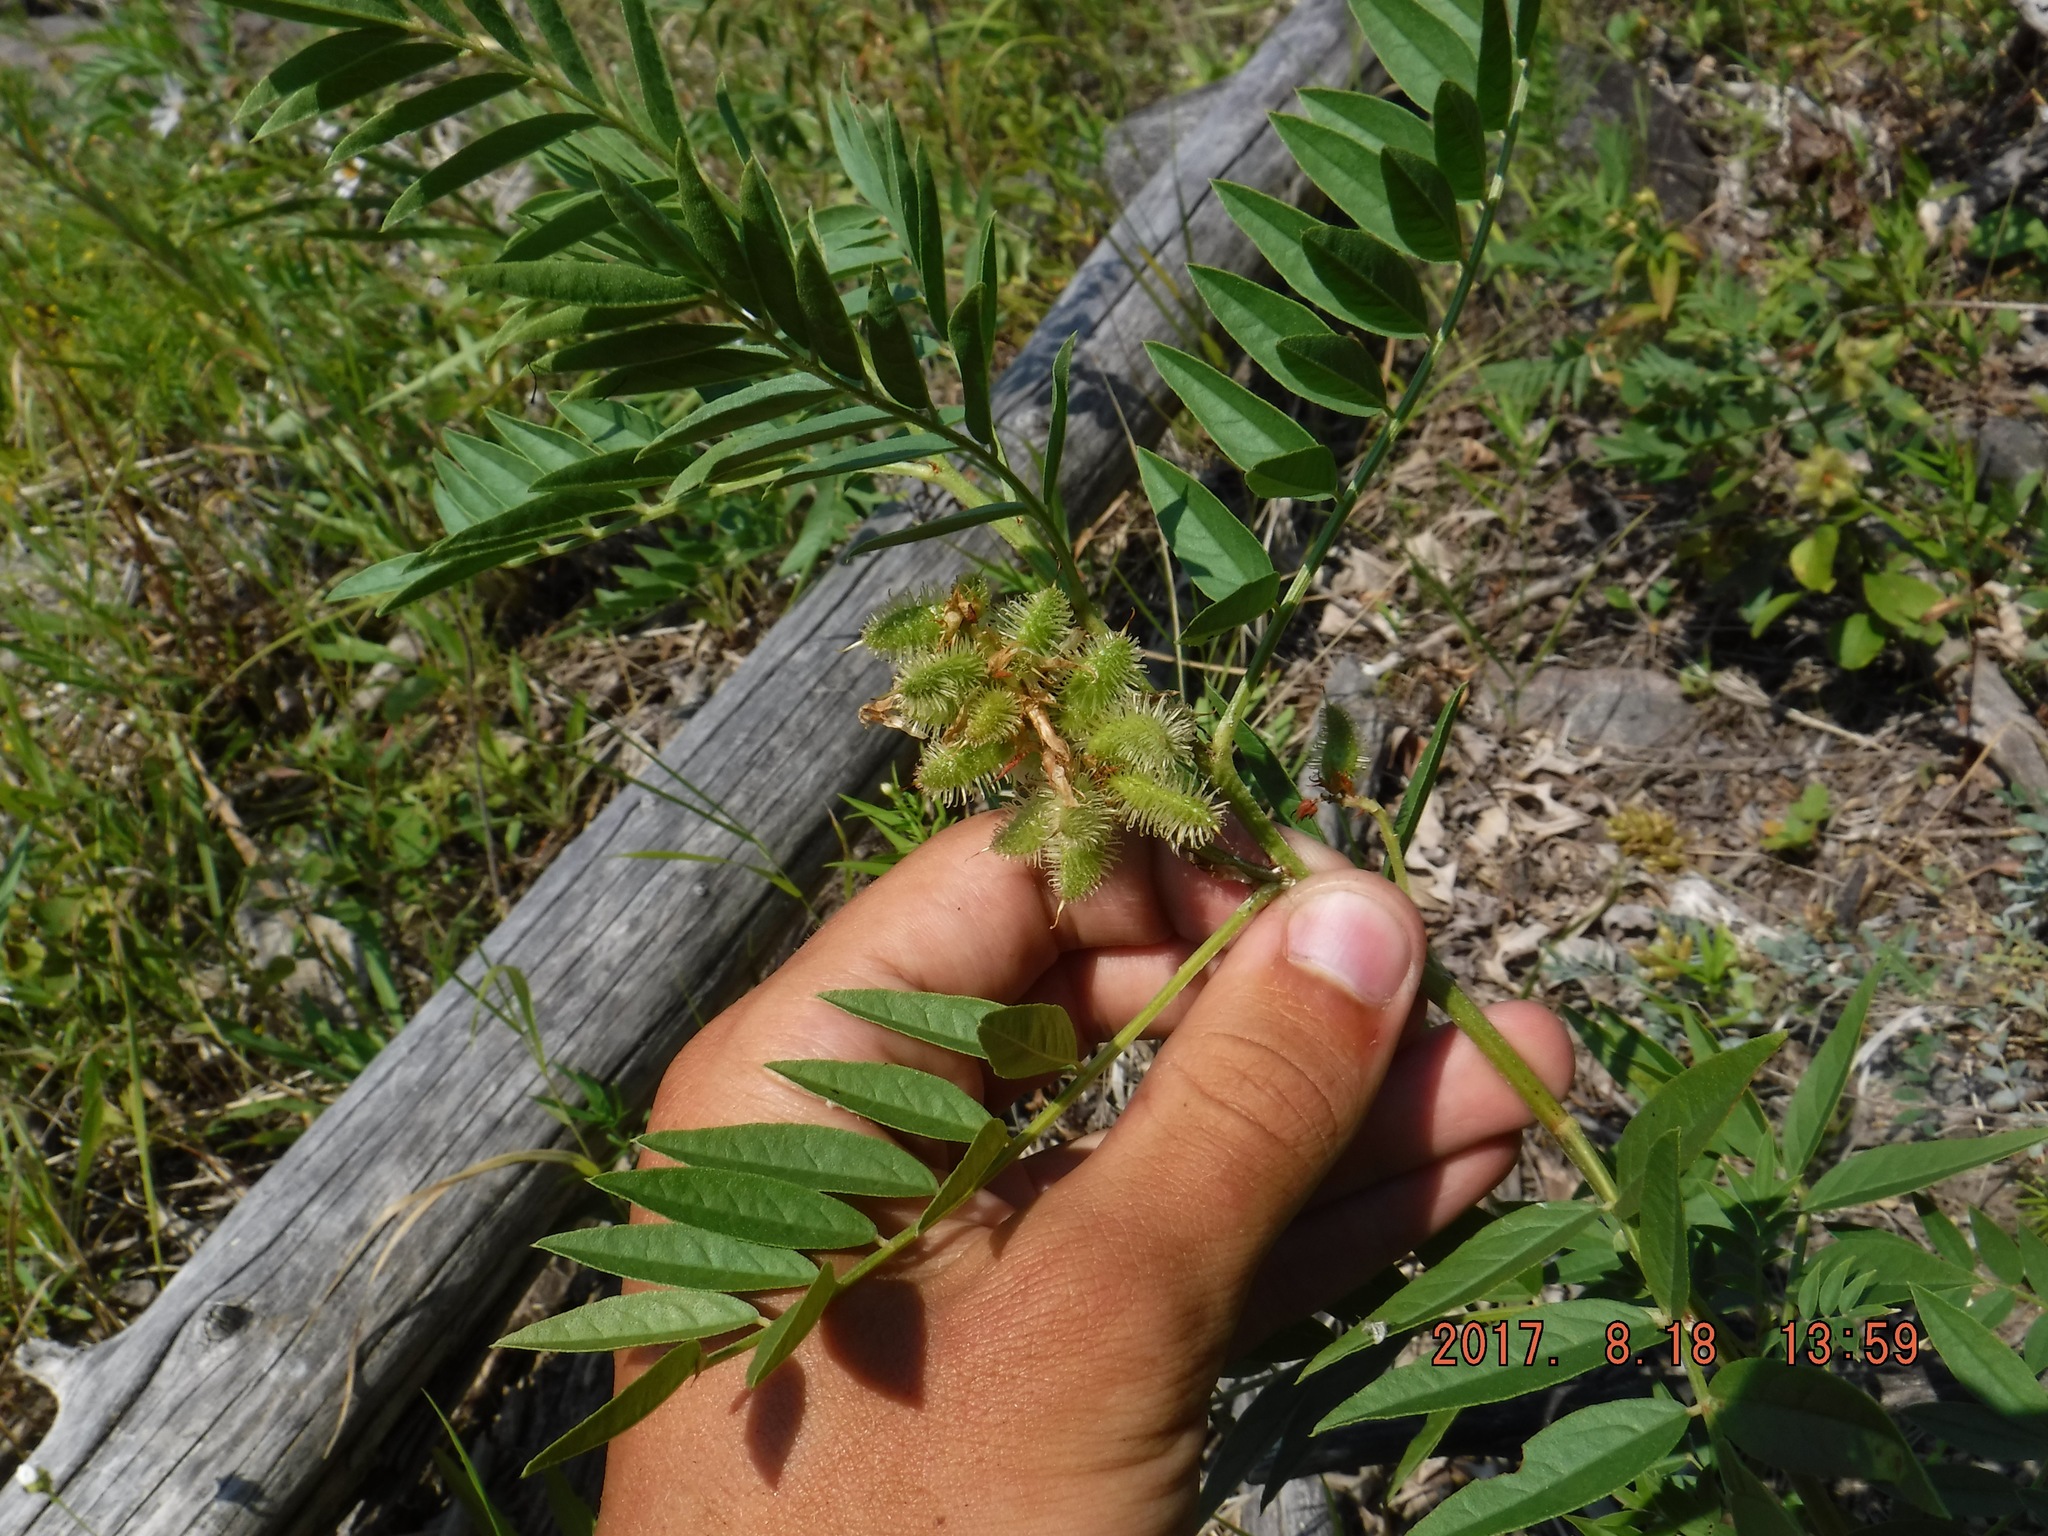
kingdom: Plantae
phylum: Tracheophyta
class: Magnoliopsida
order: Fabales
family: Fabaceae
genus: Glycyrrhiza
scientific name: Glycyrrhiza lepidota
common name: American liquorice
